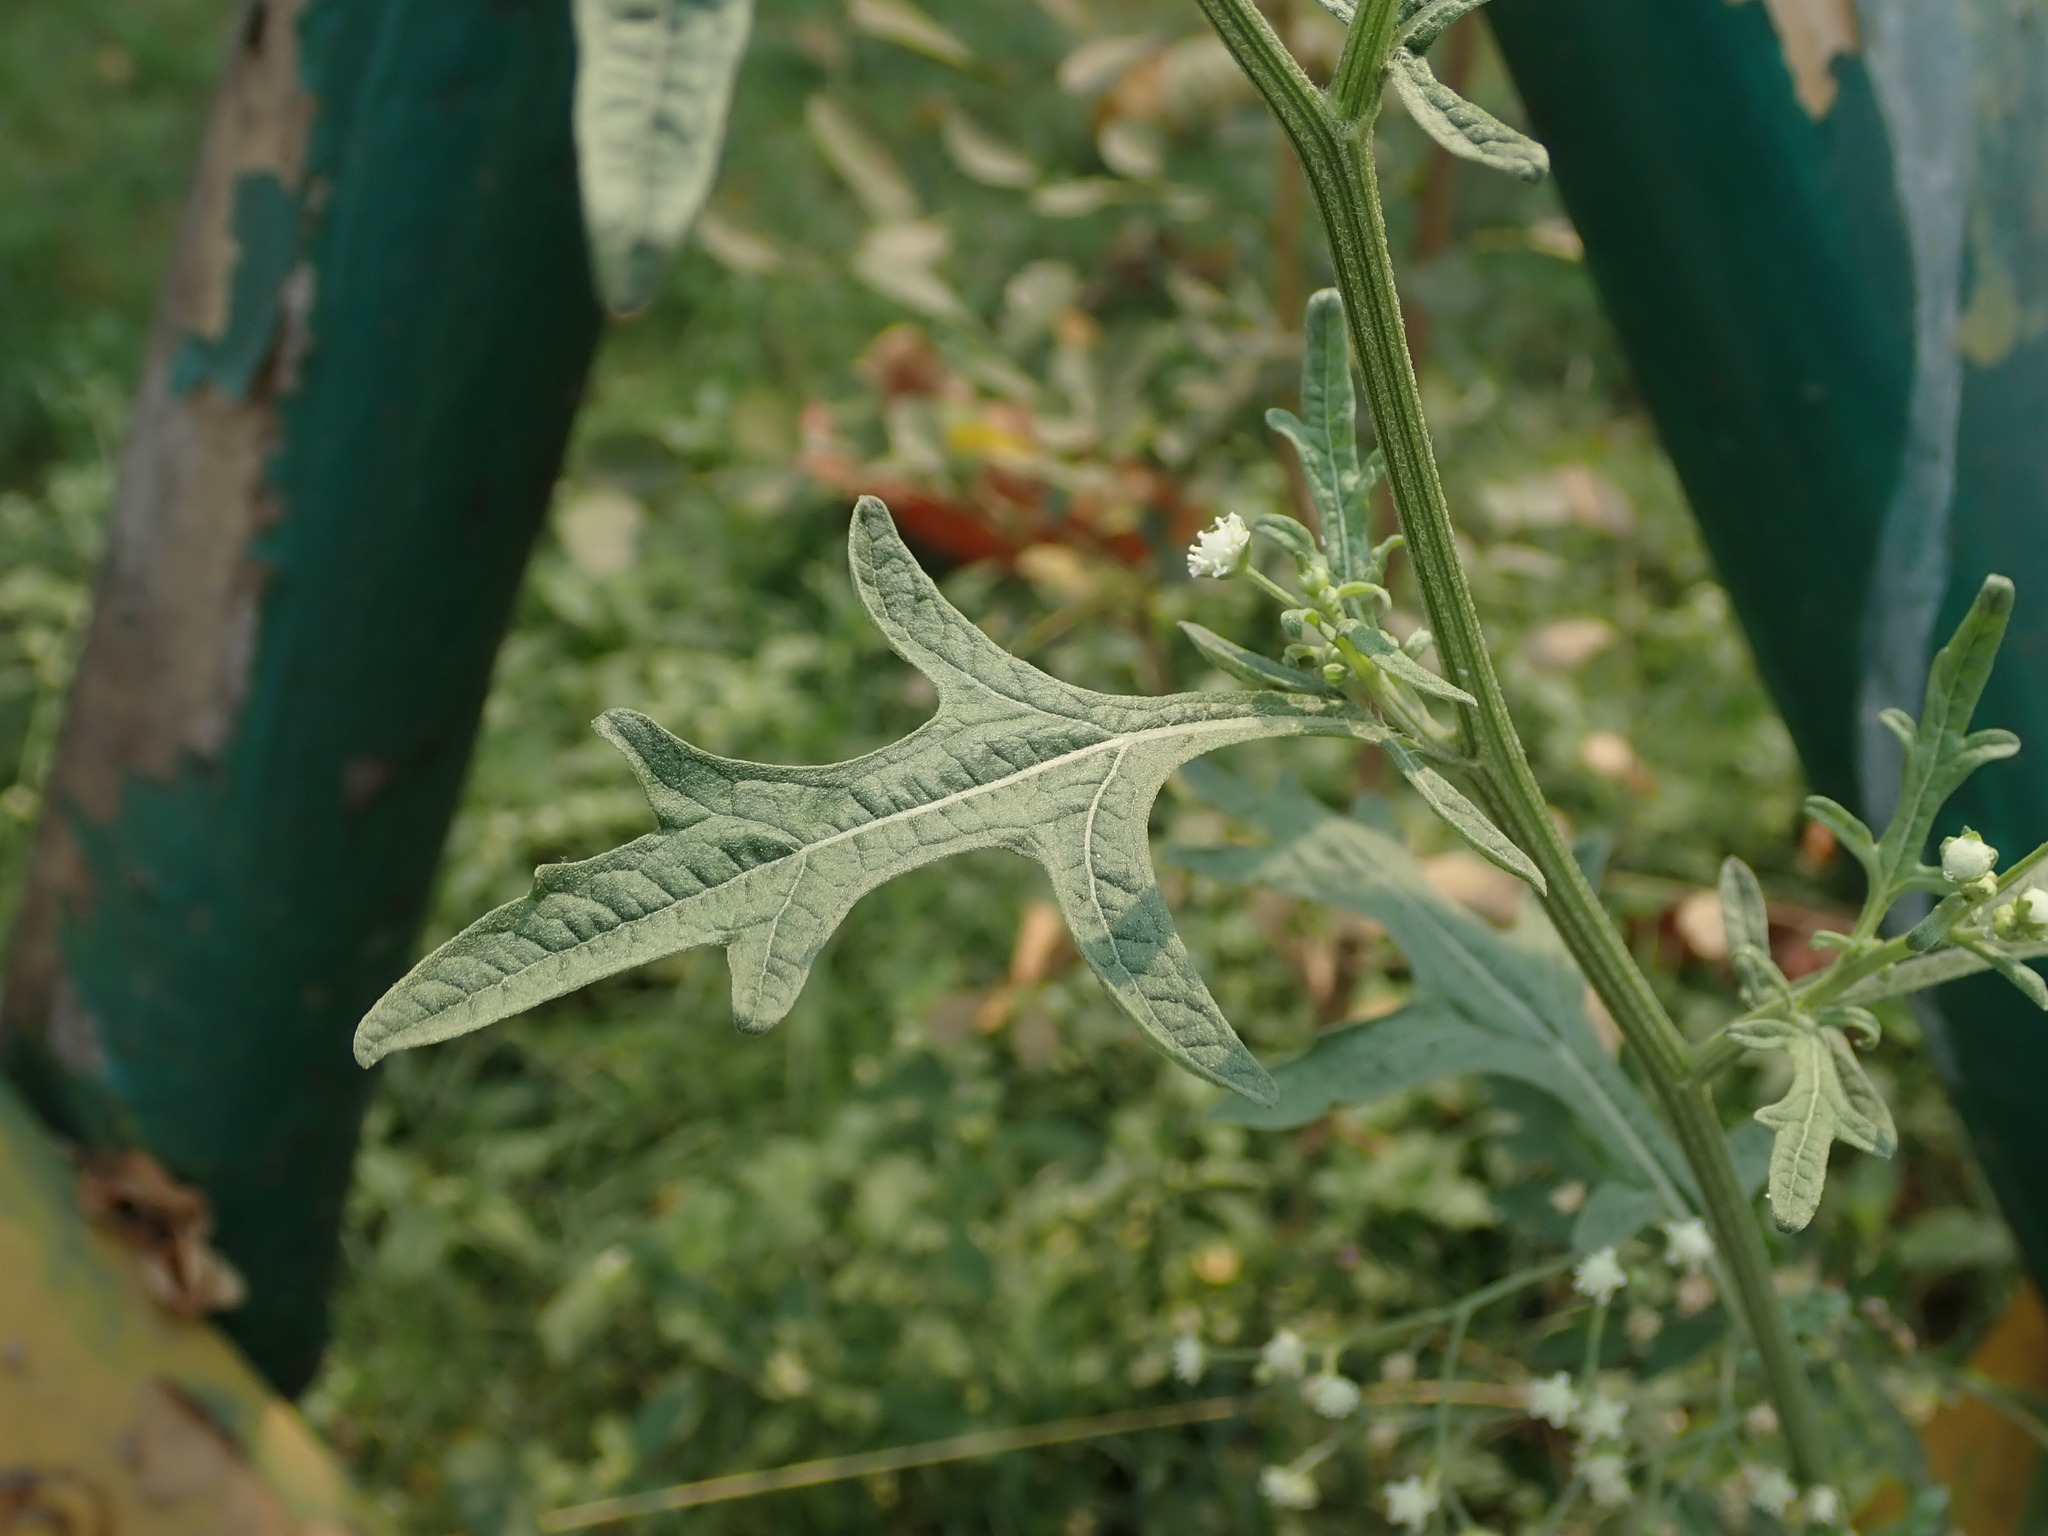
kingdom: Plantae
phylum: Tracheophyta
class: Magnoliopsida
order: Asterales
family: Asteraceae
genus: Parthenium
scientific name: Parthenium hysterophorus
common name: Santa maria feverfew
